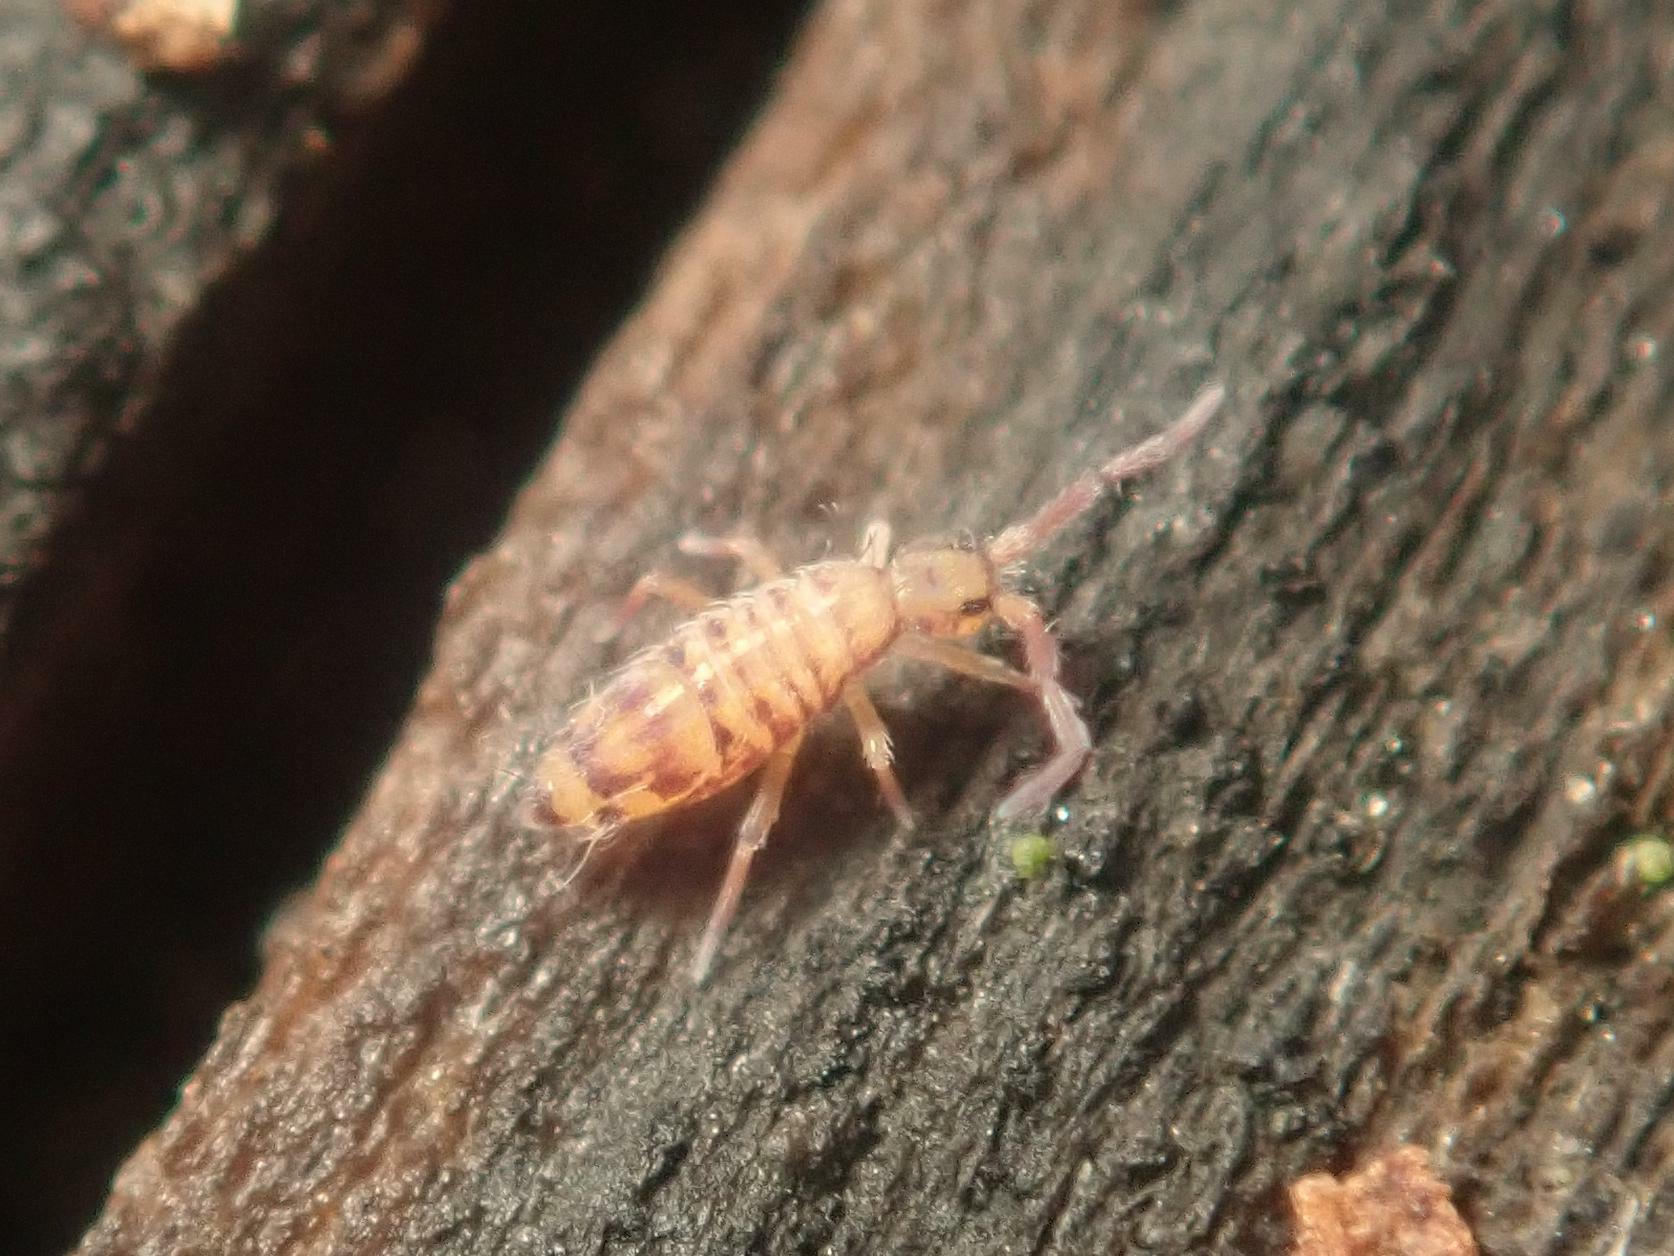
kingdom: Animalia
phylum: Arthropoda
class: Collembola
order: Entomobryomorpha
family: Entomobryidae
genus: Entomobrya
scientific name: Entomobrya multifasciata
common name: Springtail
